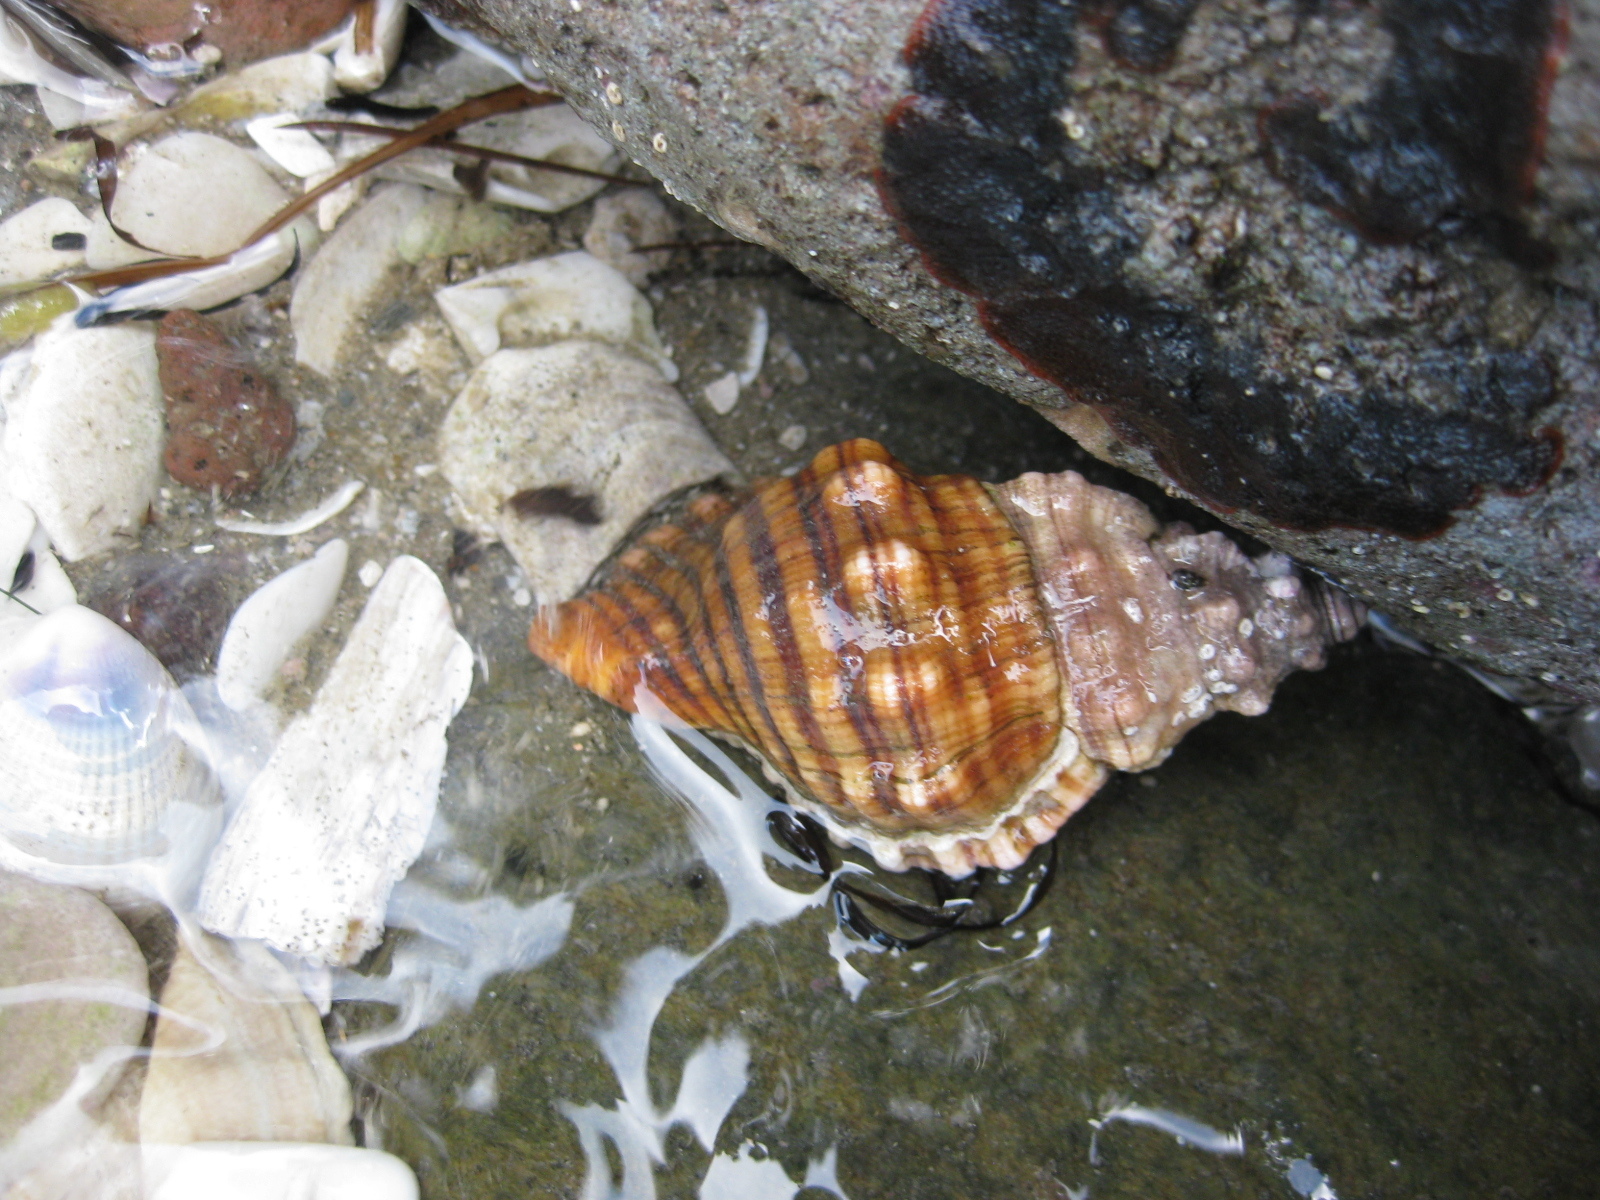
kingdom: Animalia
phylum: Mollusca
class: Gastropoda
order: Littorinimorpha
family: Cymatiidae
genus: Cabestana
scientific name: Cabestana spengleri
